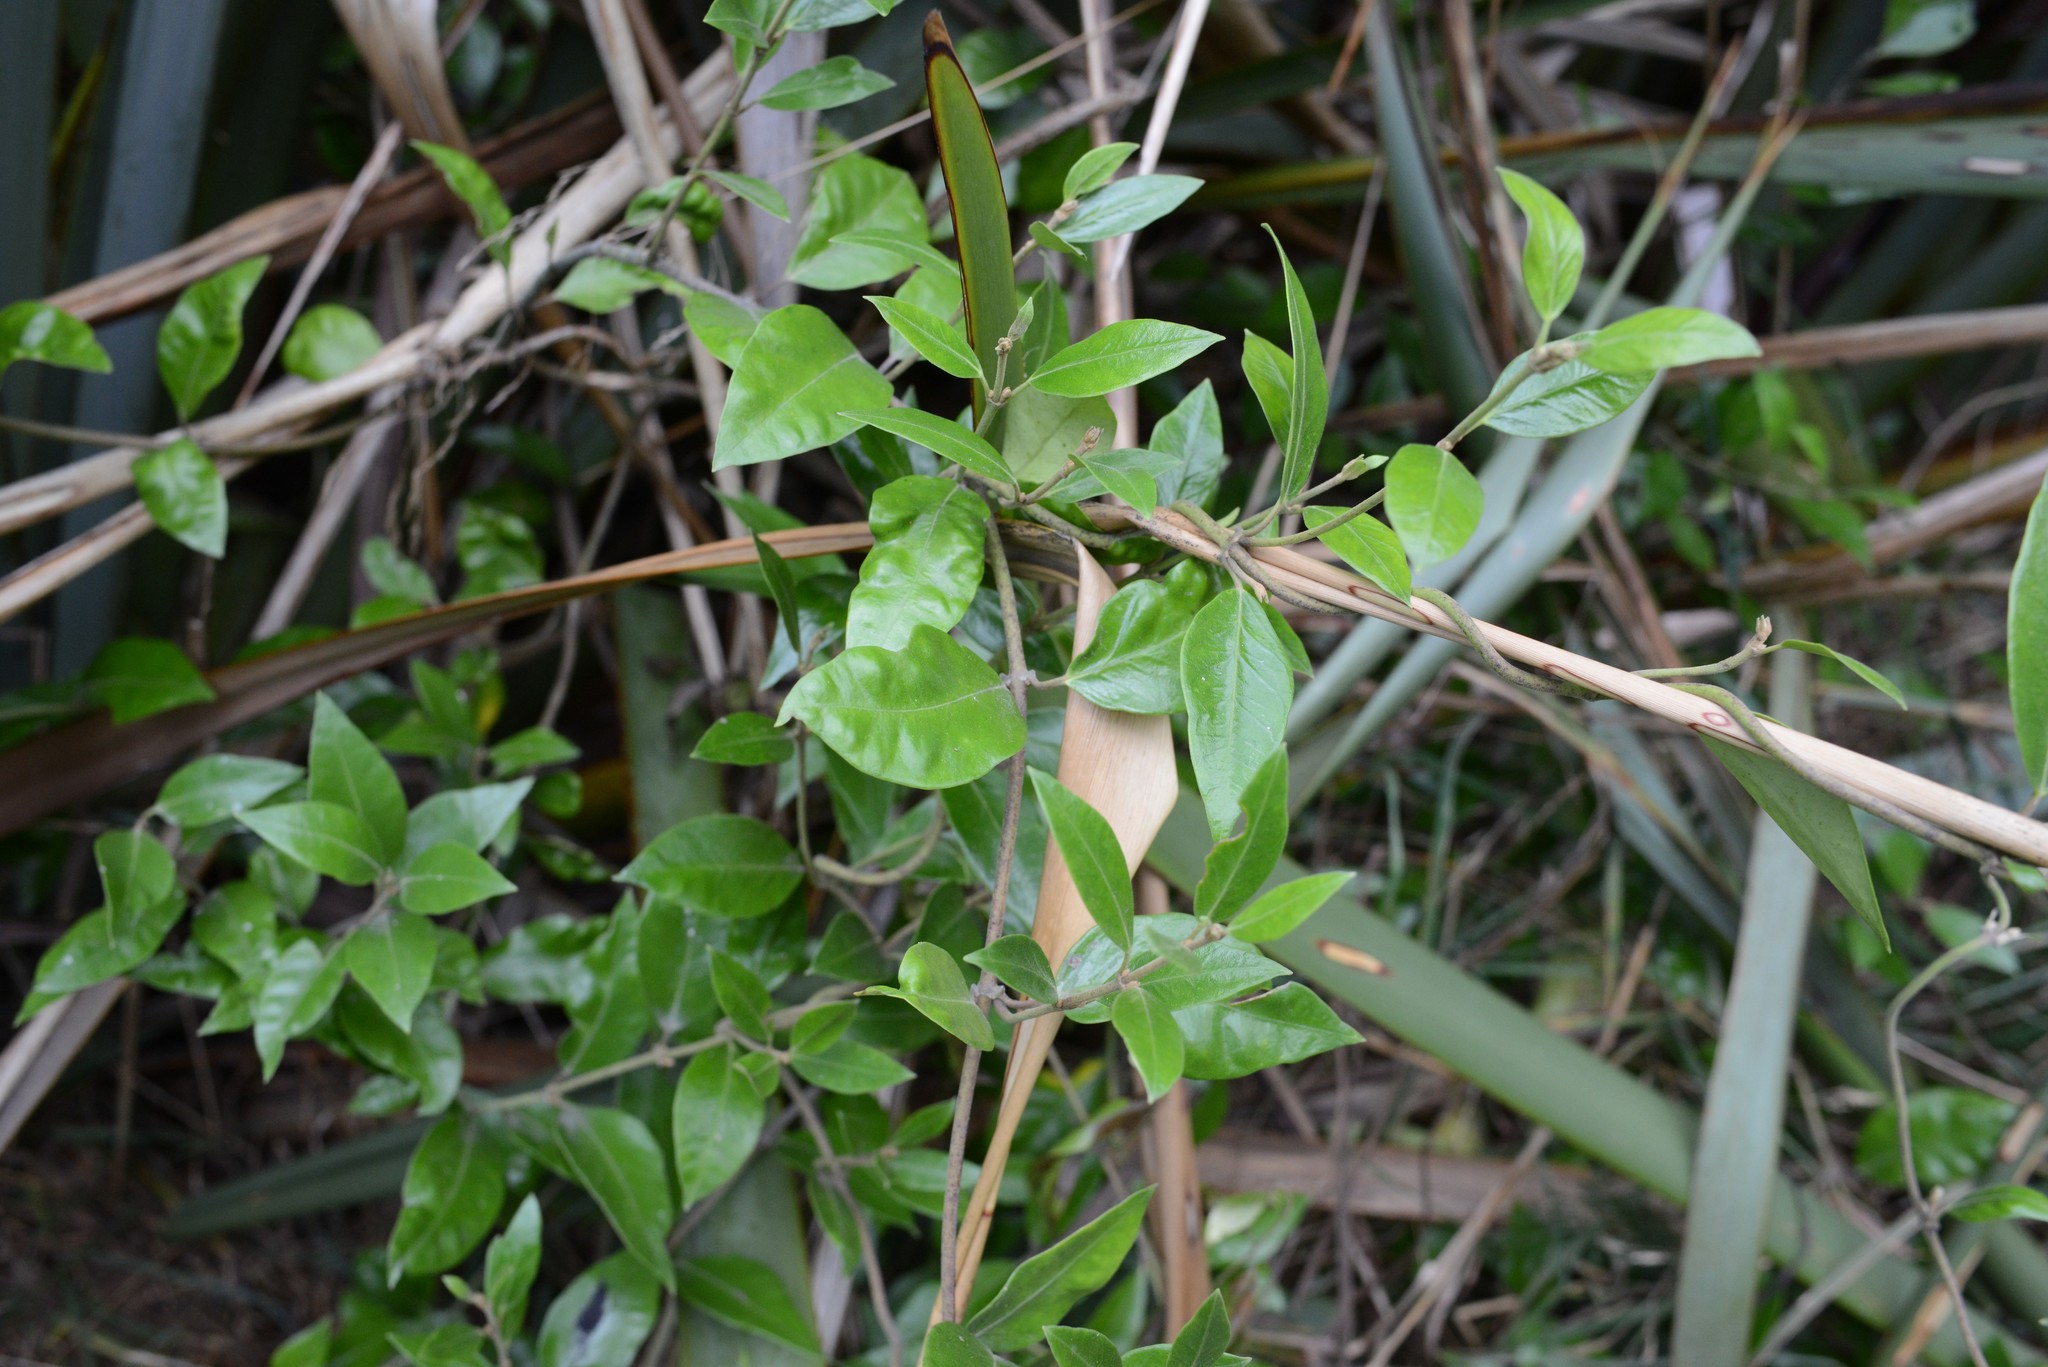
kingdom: Plantae
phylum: Tracheophyta
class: Magnoliopsida
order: Gentianales
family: Apocynaceae
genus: Parsonsia
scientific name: Parsonsia heterophylla
